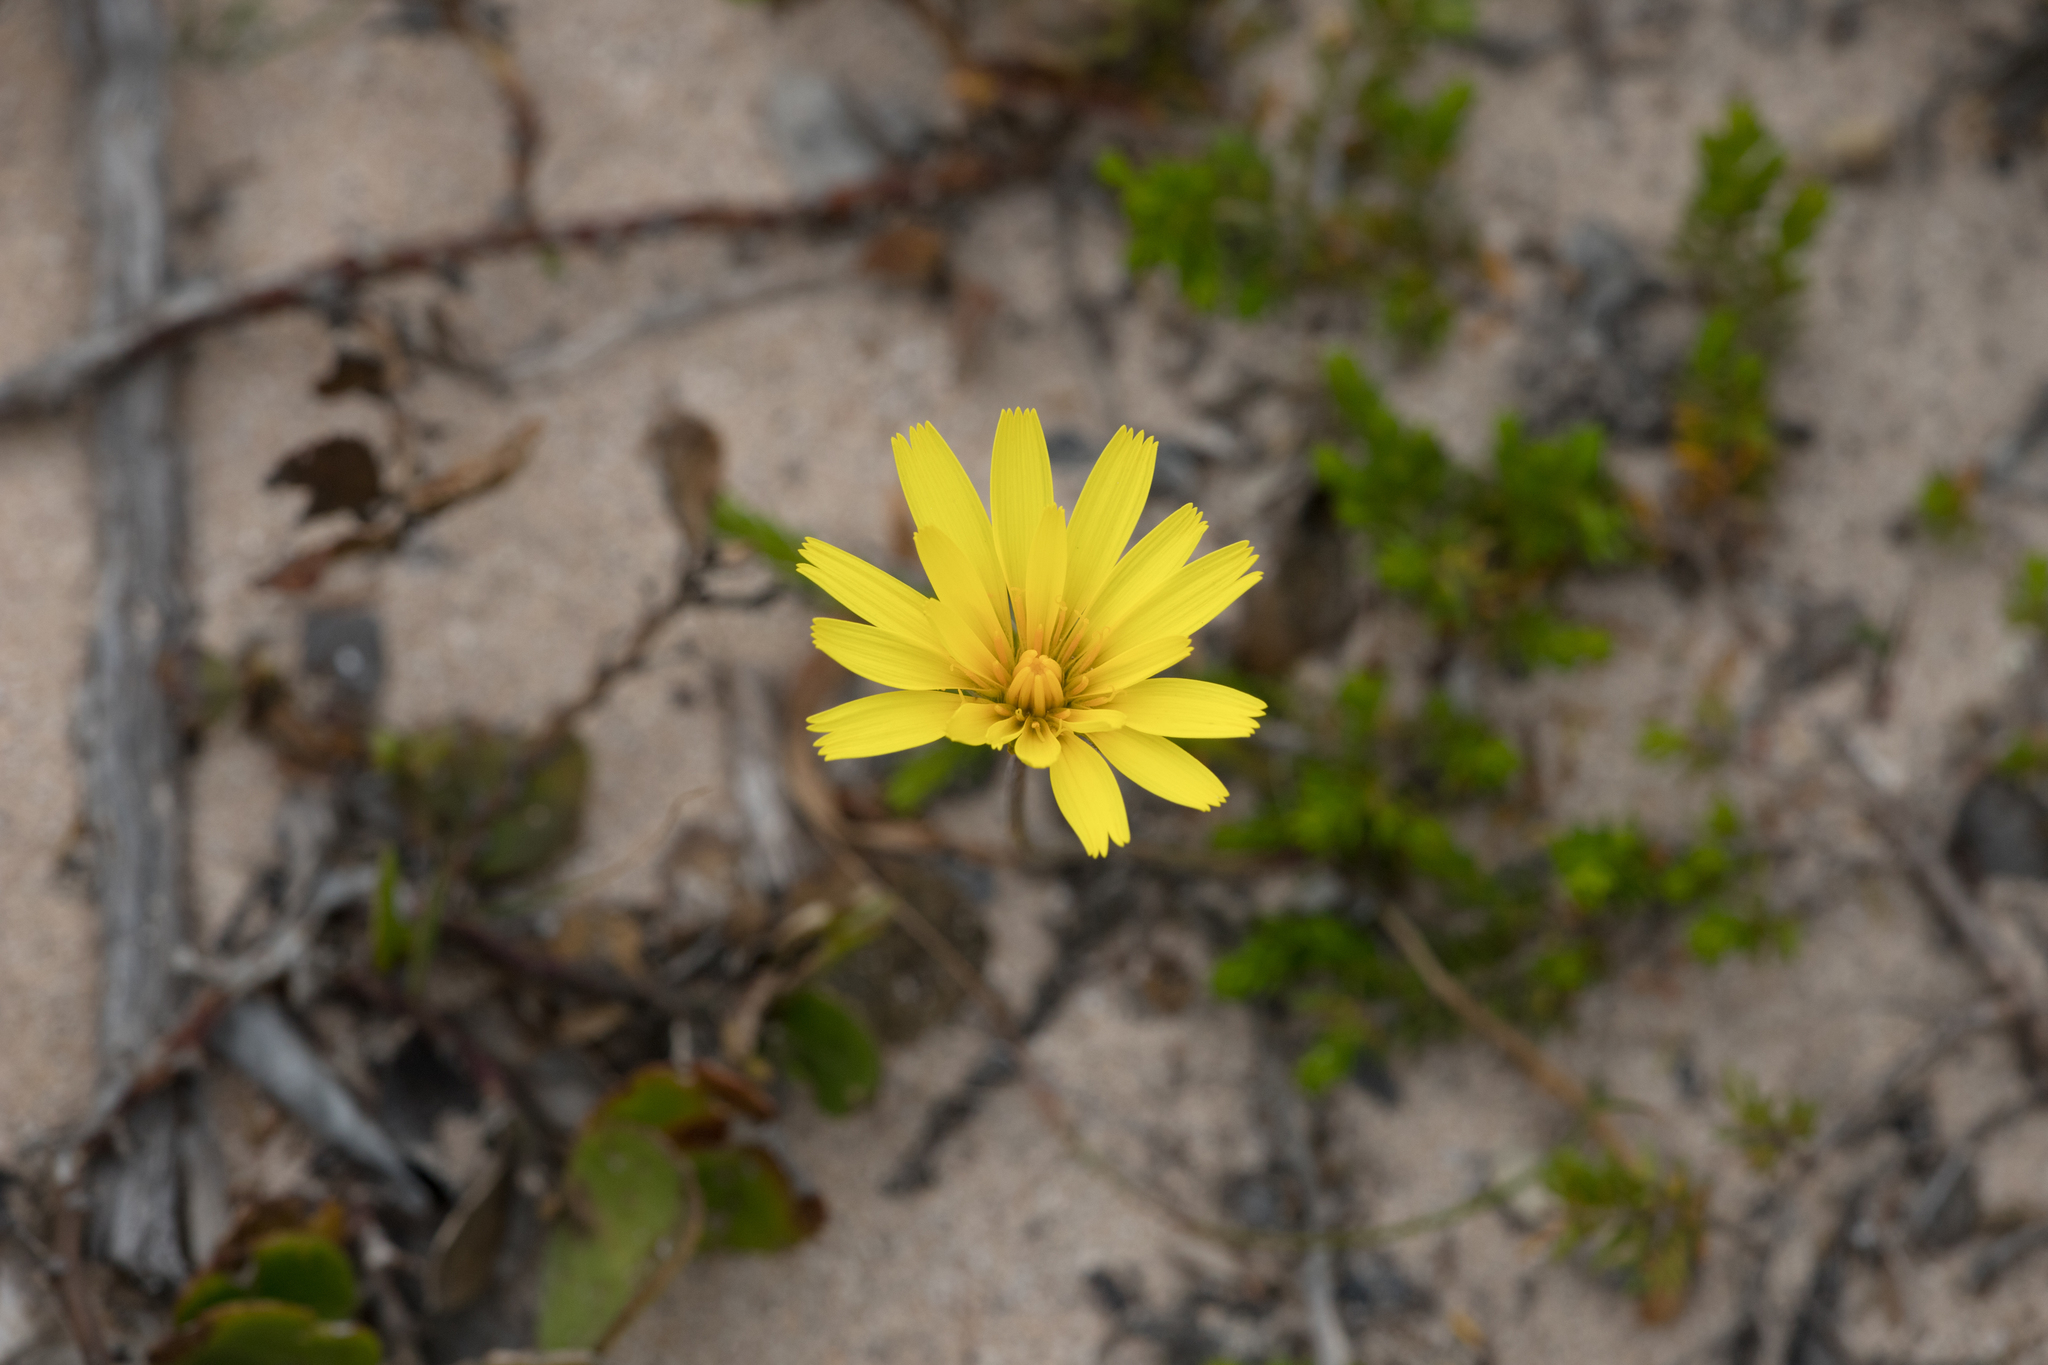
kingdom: Plantae
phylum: Tracheophyta
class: Magnoliopsida
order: Asterales
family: Asteraceae
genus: Microseris
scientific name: Microseris lanceolata
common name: Yam daisy
